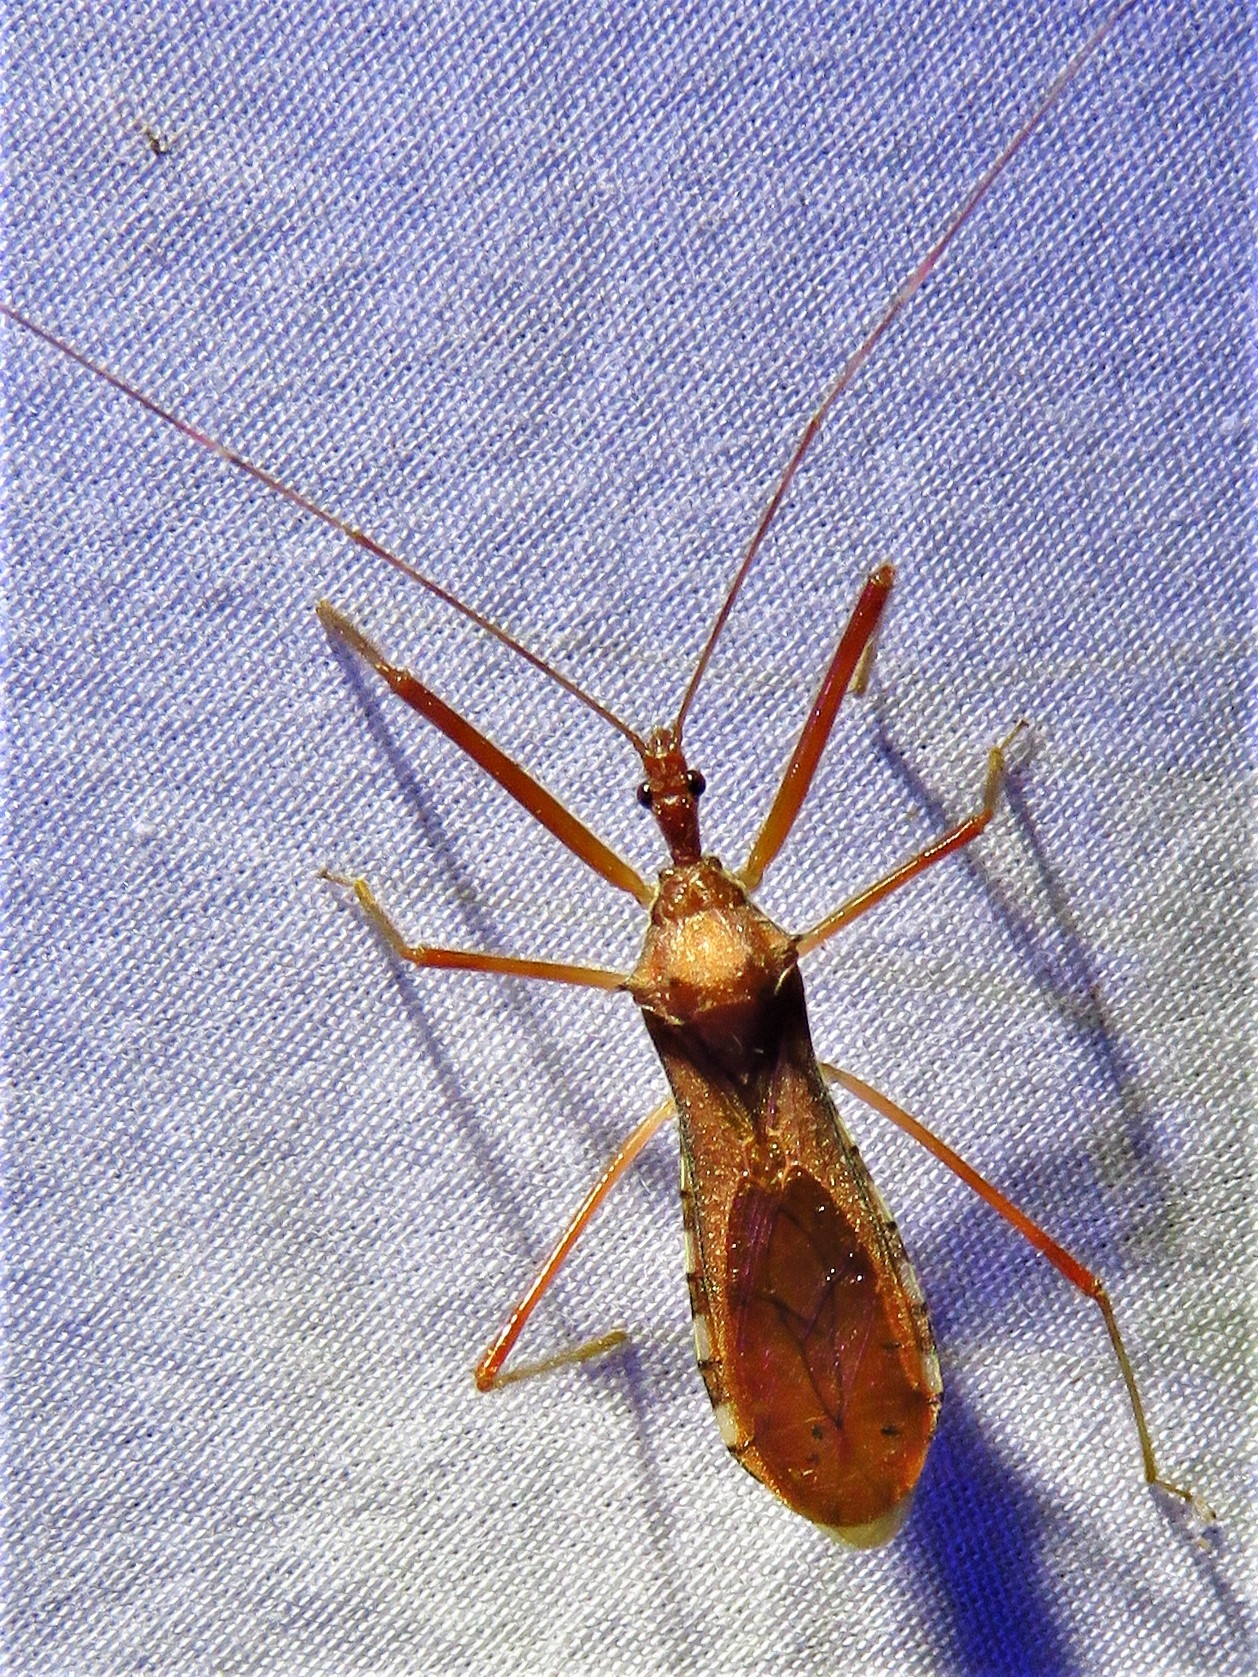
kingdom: Animalia
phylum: Arthropoda
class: Insecta
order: Hemiptera
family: Reduviidae
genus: Rocconota
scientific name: Rocconota annulicornis
